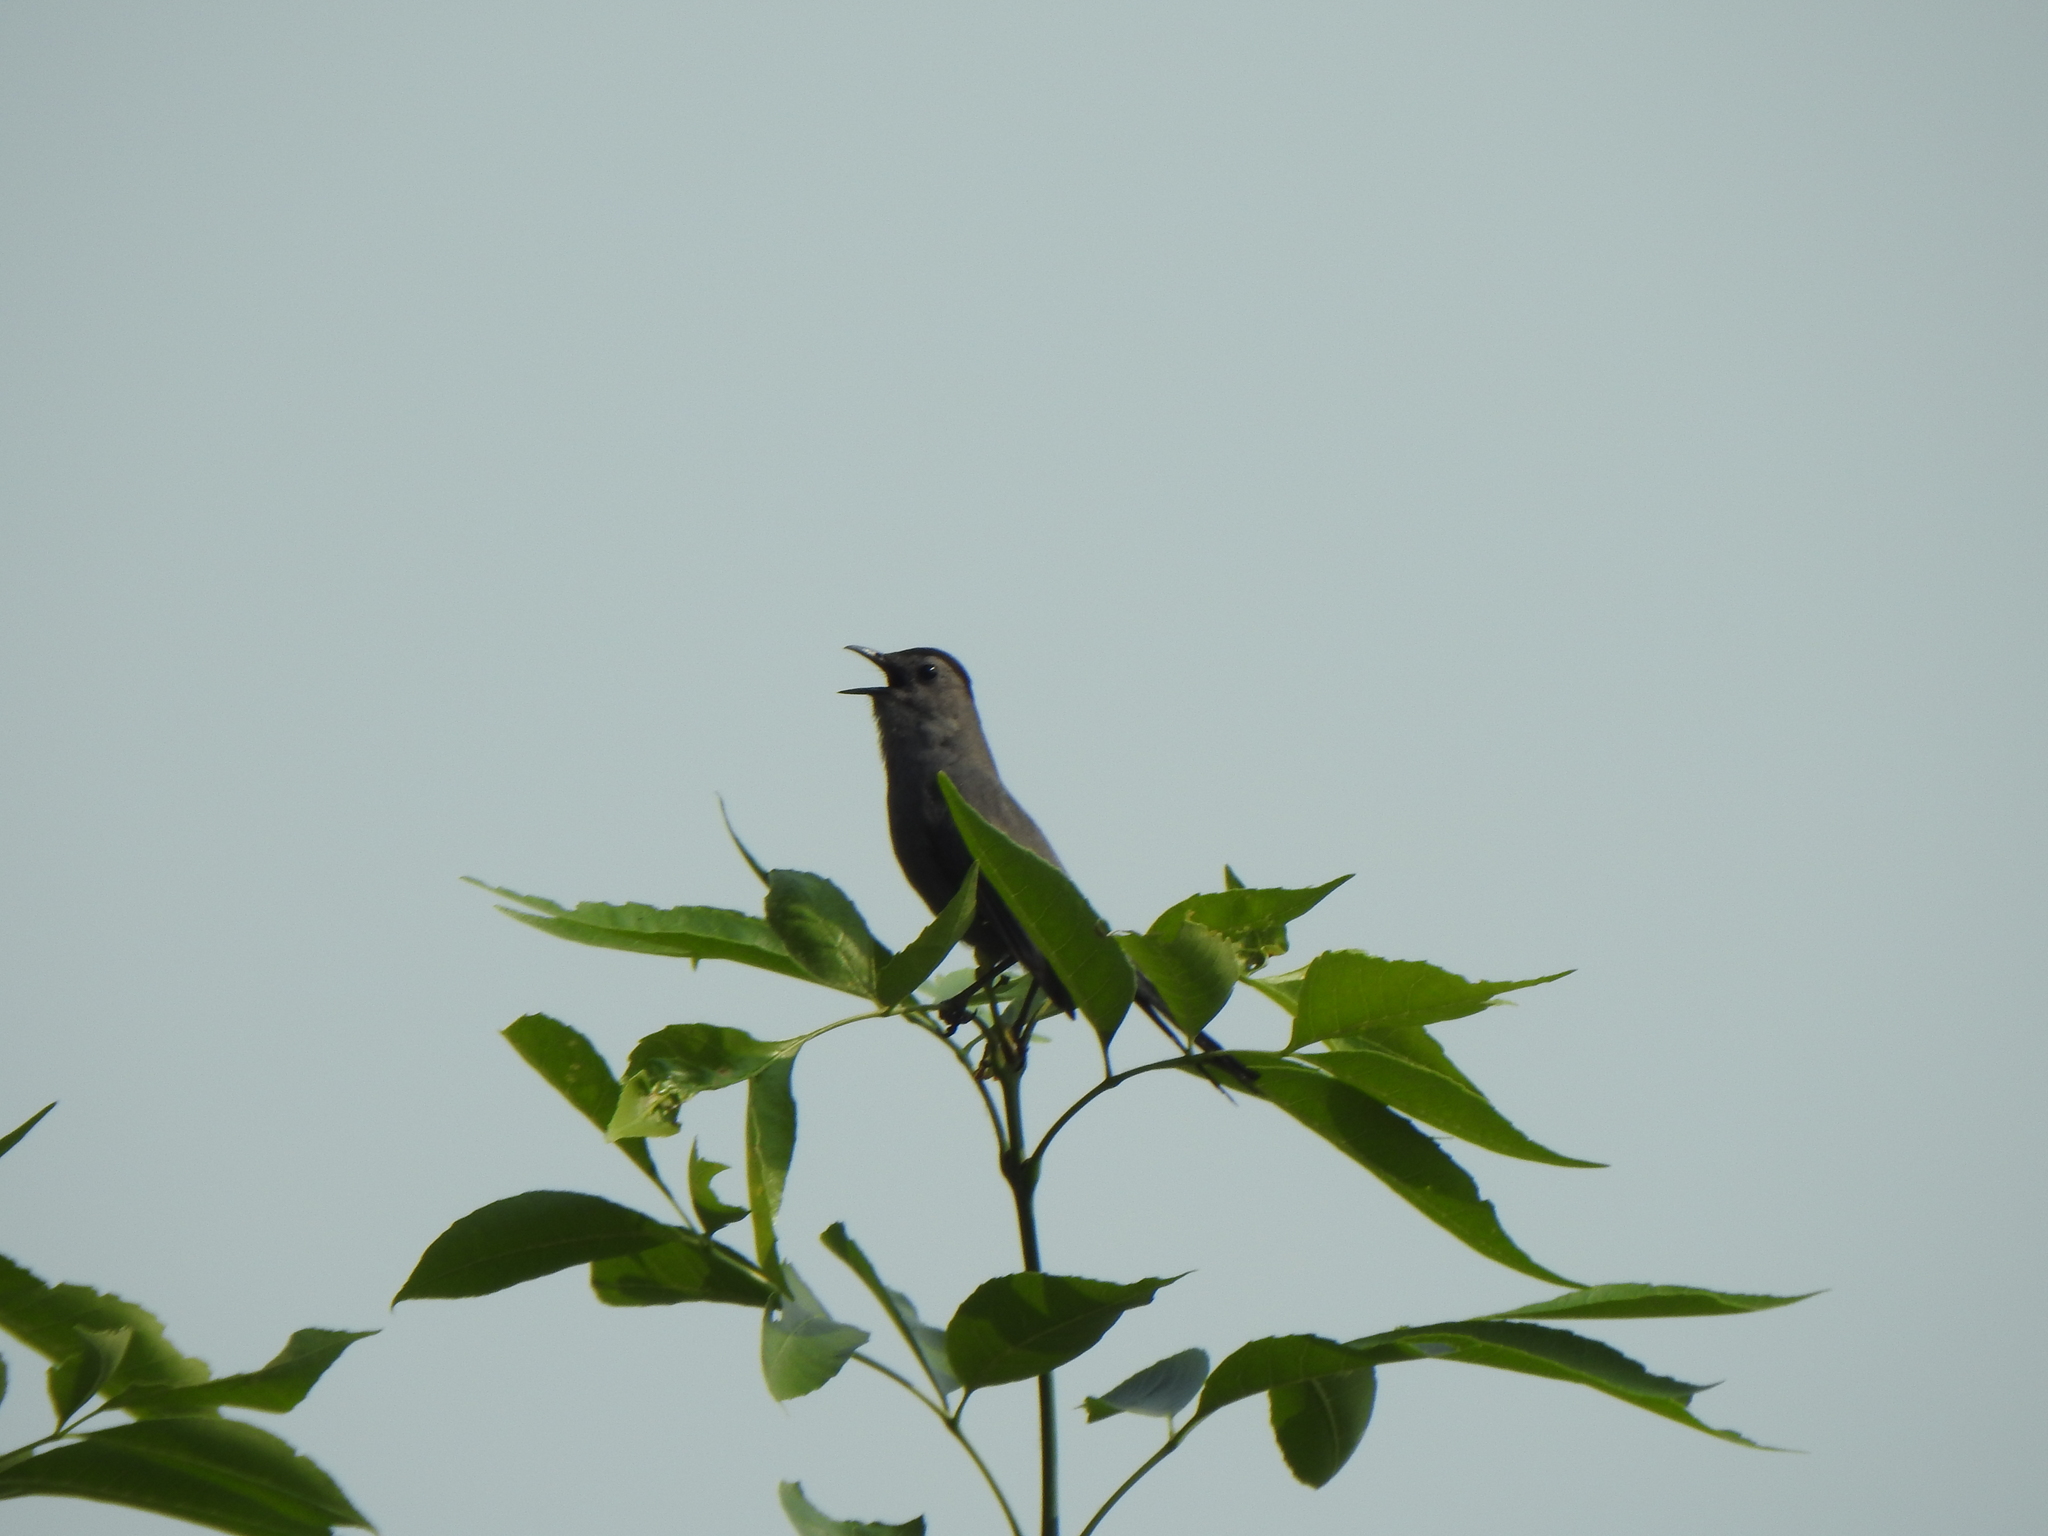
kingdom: Animalia
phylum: Chordata
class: Aves
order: Passeriformes
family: Mimidae
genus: Dumetella
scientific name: Dumetella carolinensis
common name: Gray catbird
